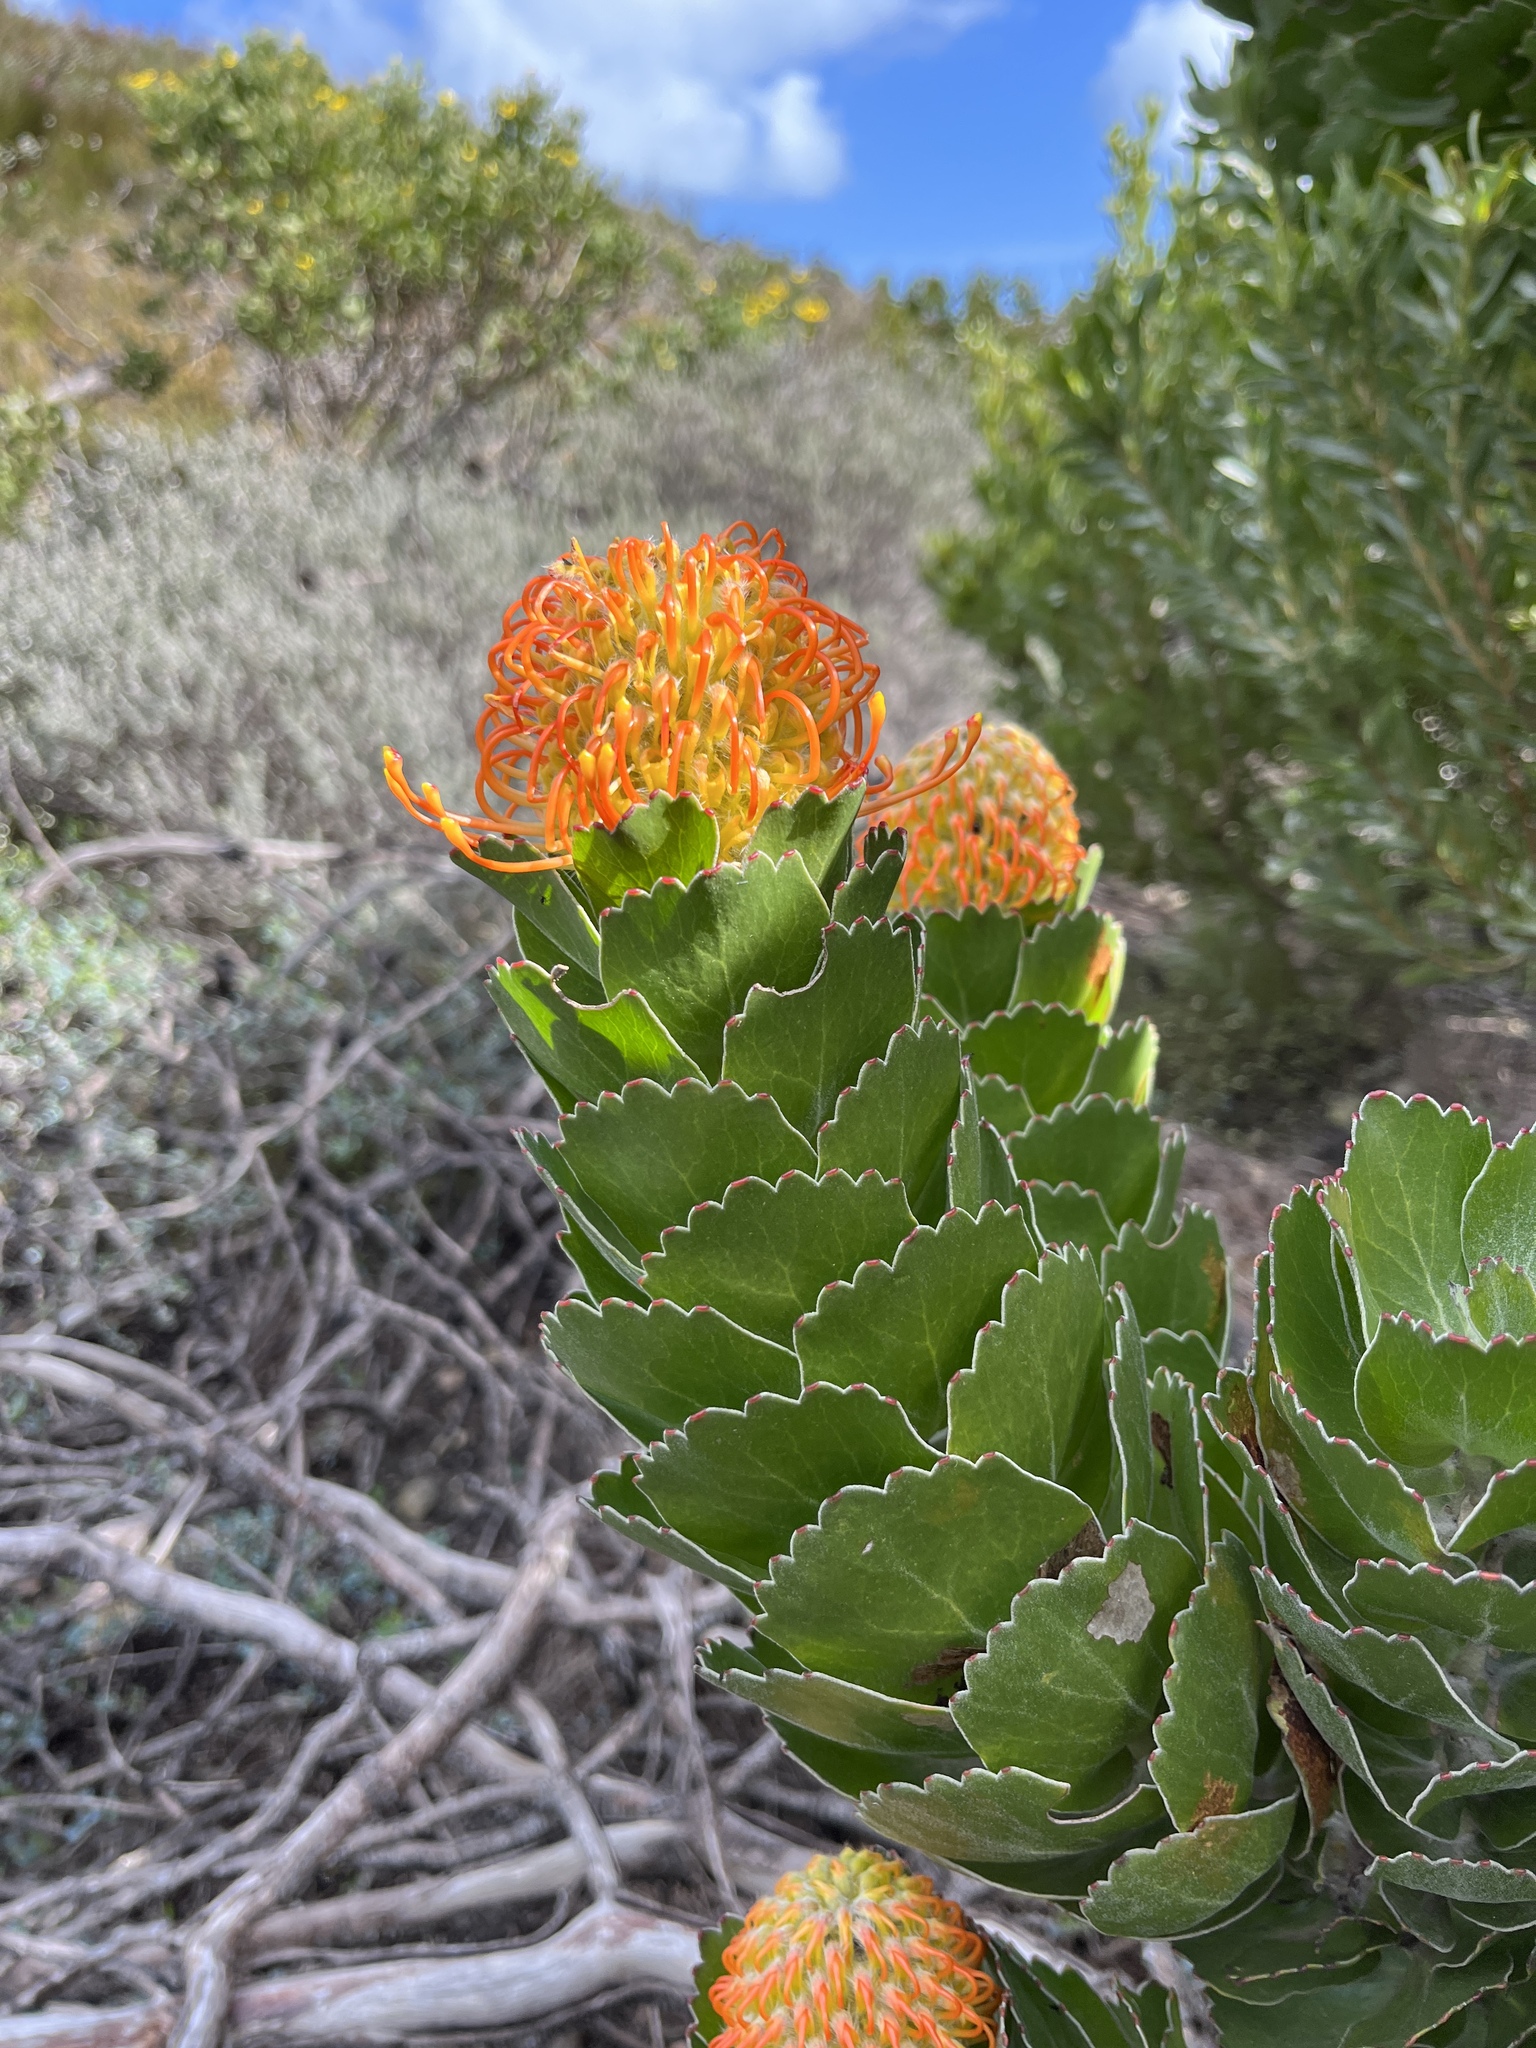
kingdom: Plantae
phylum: Tracheophyta
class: Magnoliopsida
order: Proteales
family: Proteaceae
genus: Leucospermum
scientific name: Leucospermum patersonii
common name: False tree pincushion
